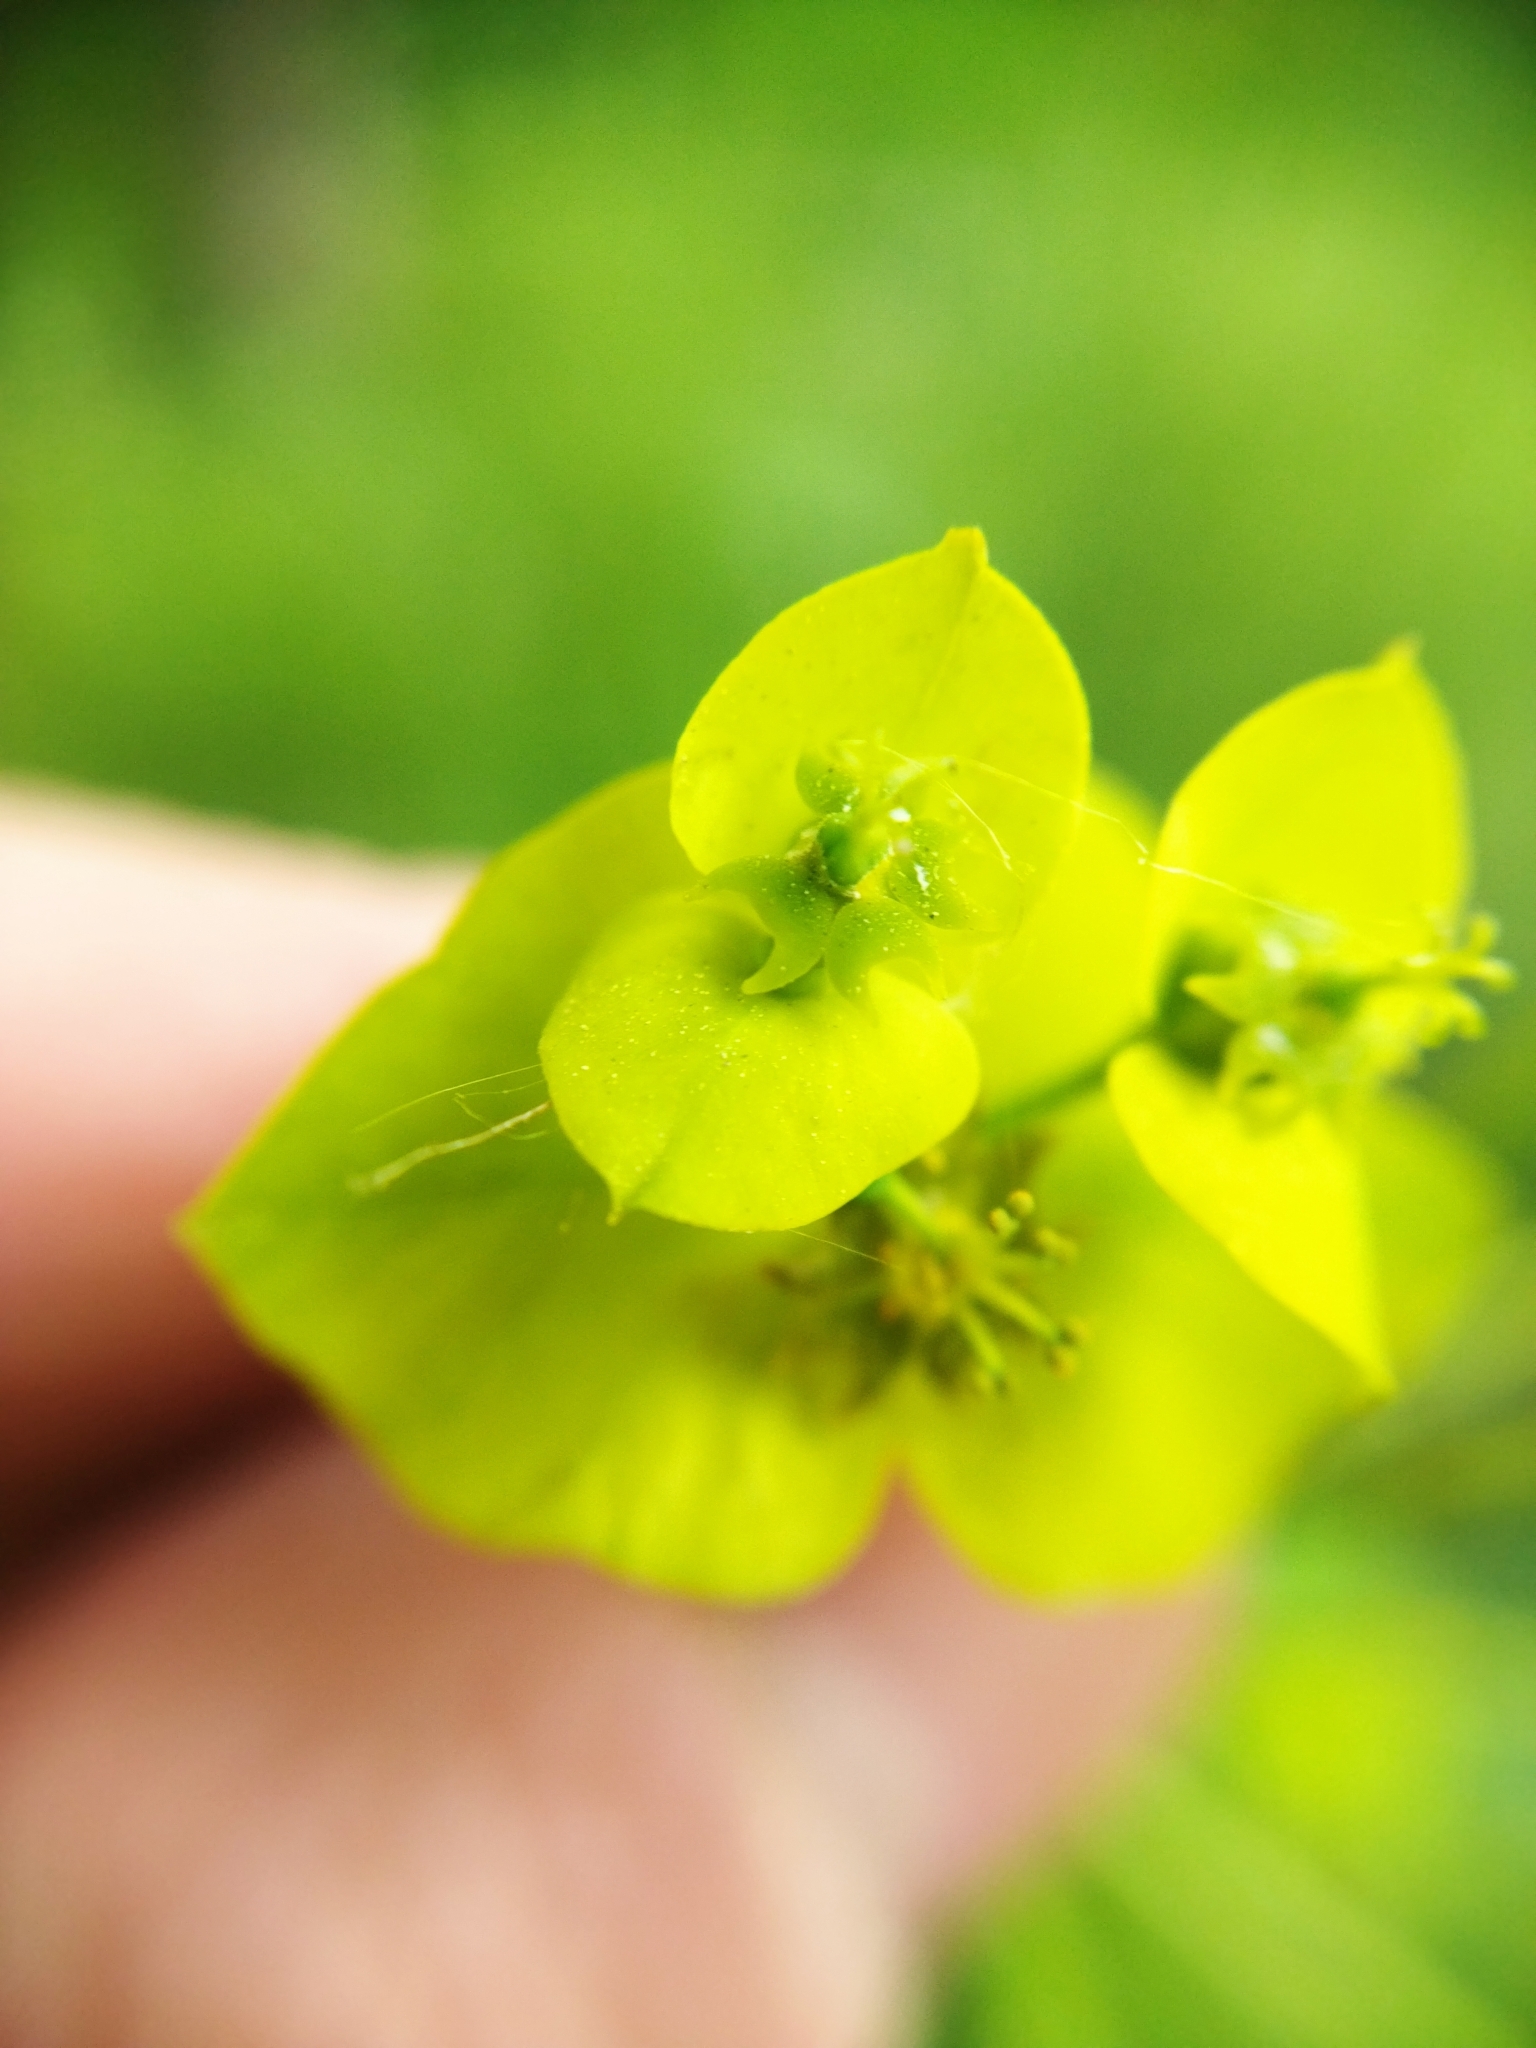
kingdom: Plantae
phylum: Tracheophyta
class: Magnoliopsida
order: Malpighiales
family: Euphorbiaceae
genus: Euphorbia
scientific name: Euphorbia virgata
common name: Leafy spurge
